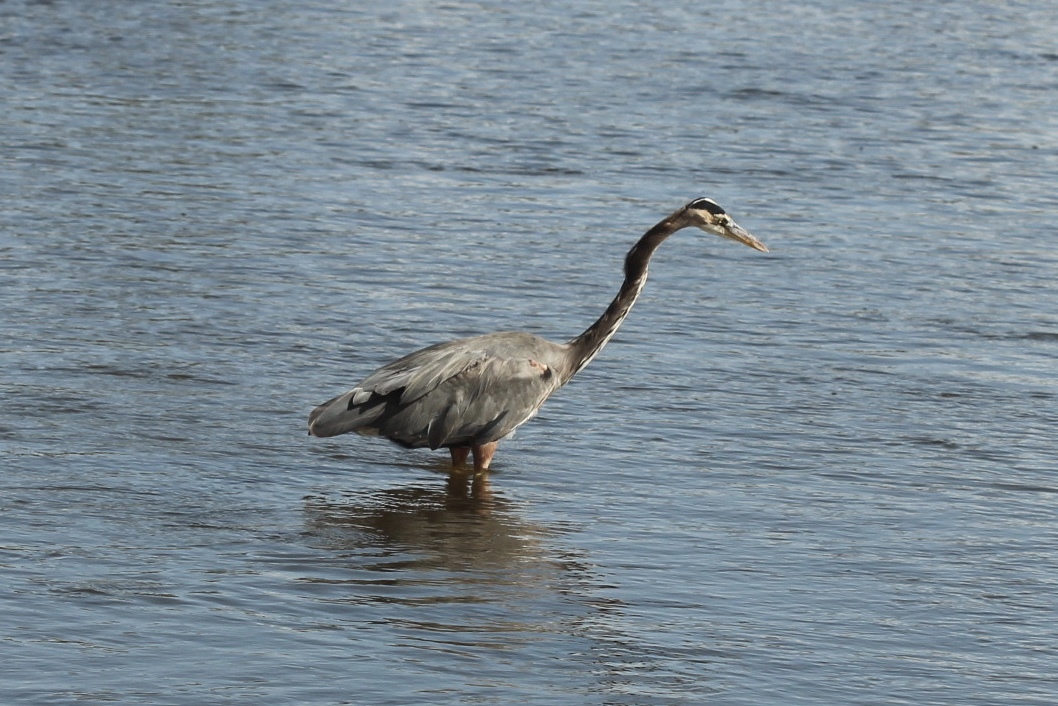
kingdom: Animalia
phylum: Chordata
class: Aves
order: Pelecaniformes
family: Ardeidae
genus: Ardea
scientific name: Ardea herodias
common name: Great blue heron
